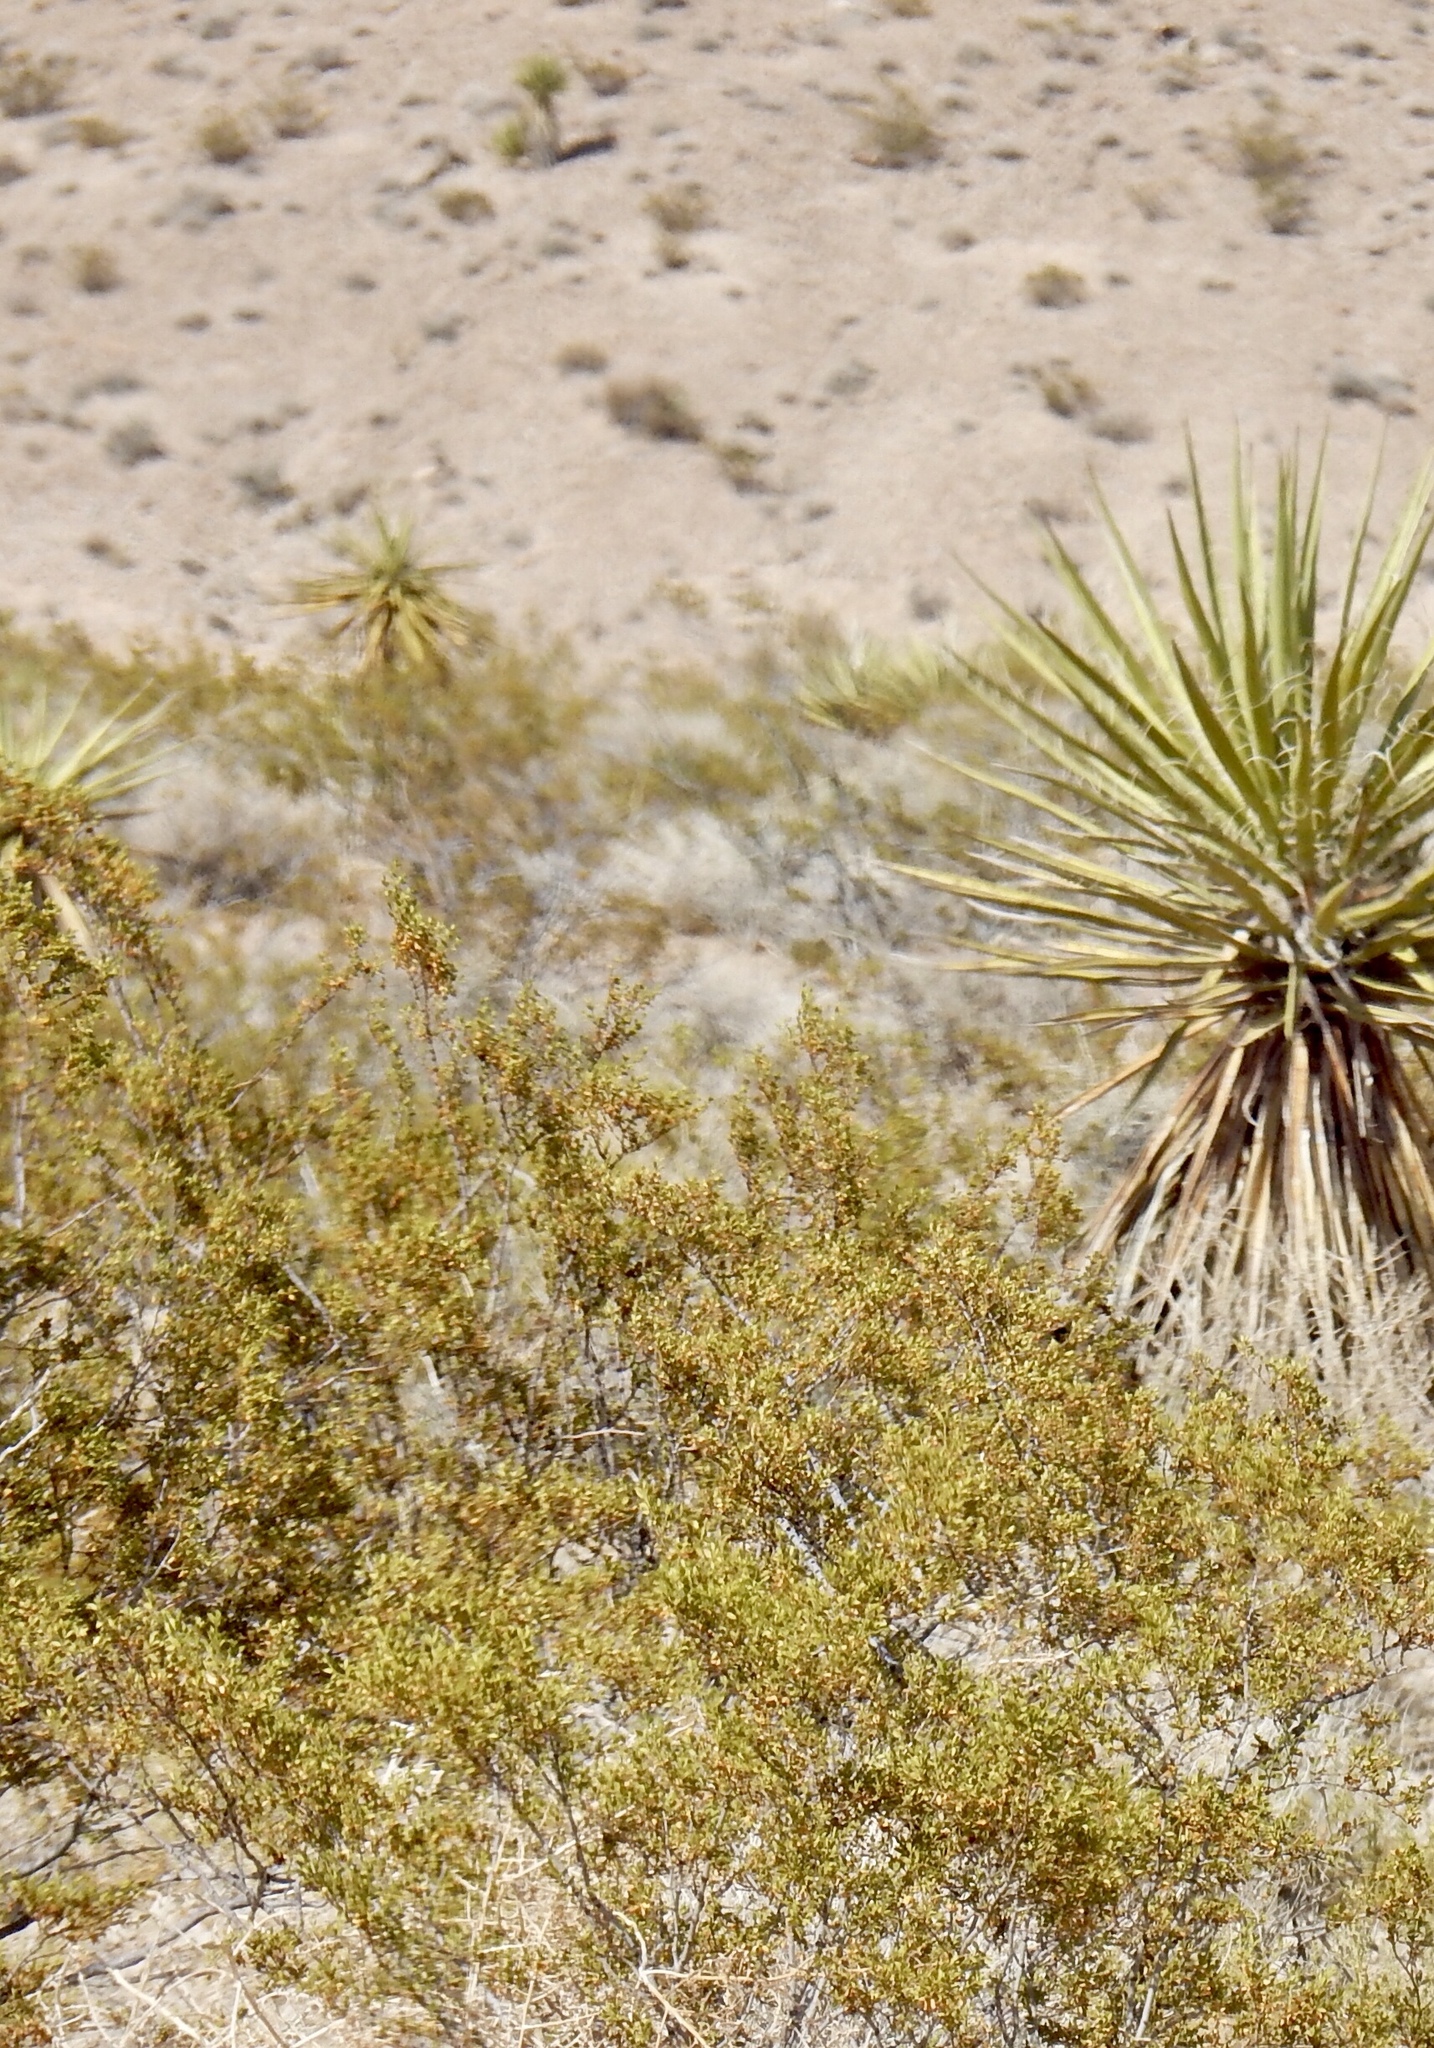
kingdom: Plantae
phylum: Tracheophyta
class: Magnoliopsida
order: Zygophyllales
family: Zygophyllaceae
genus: Larrea
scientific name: Larrea tridentata
